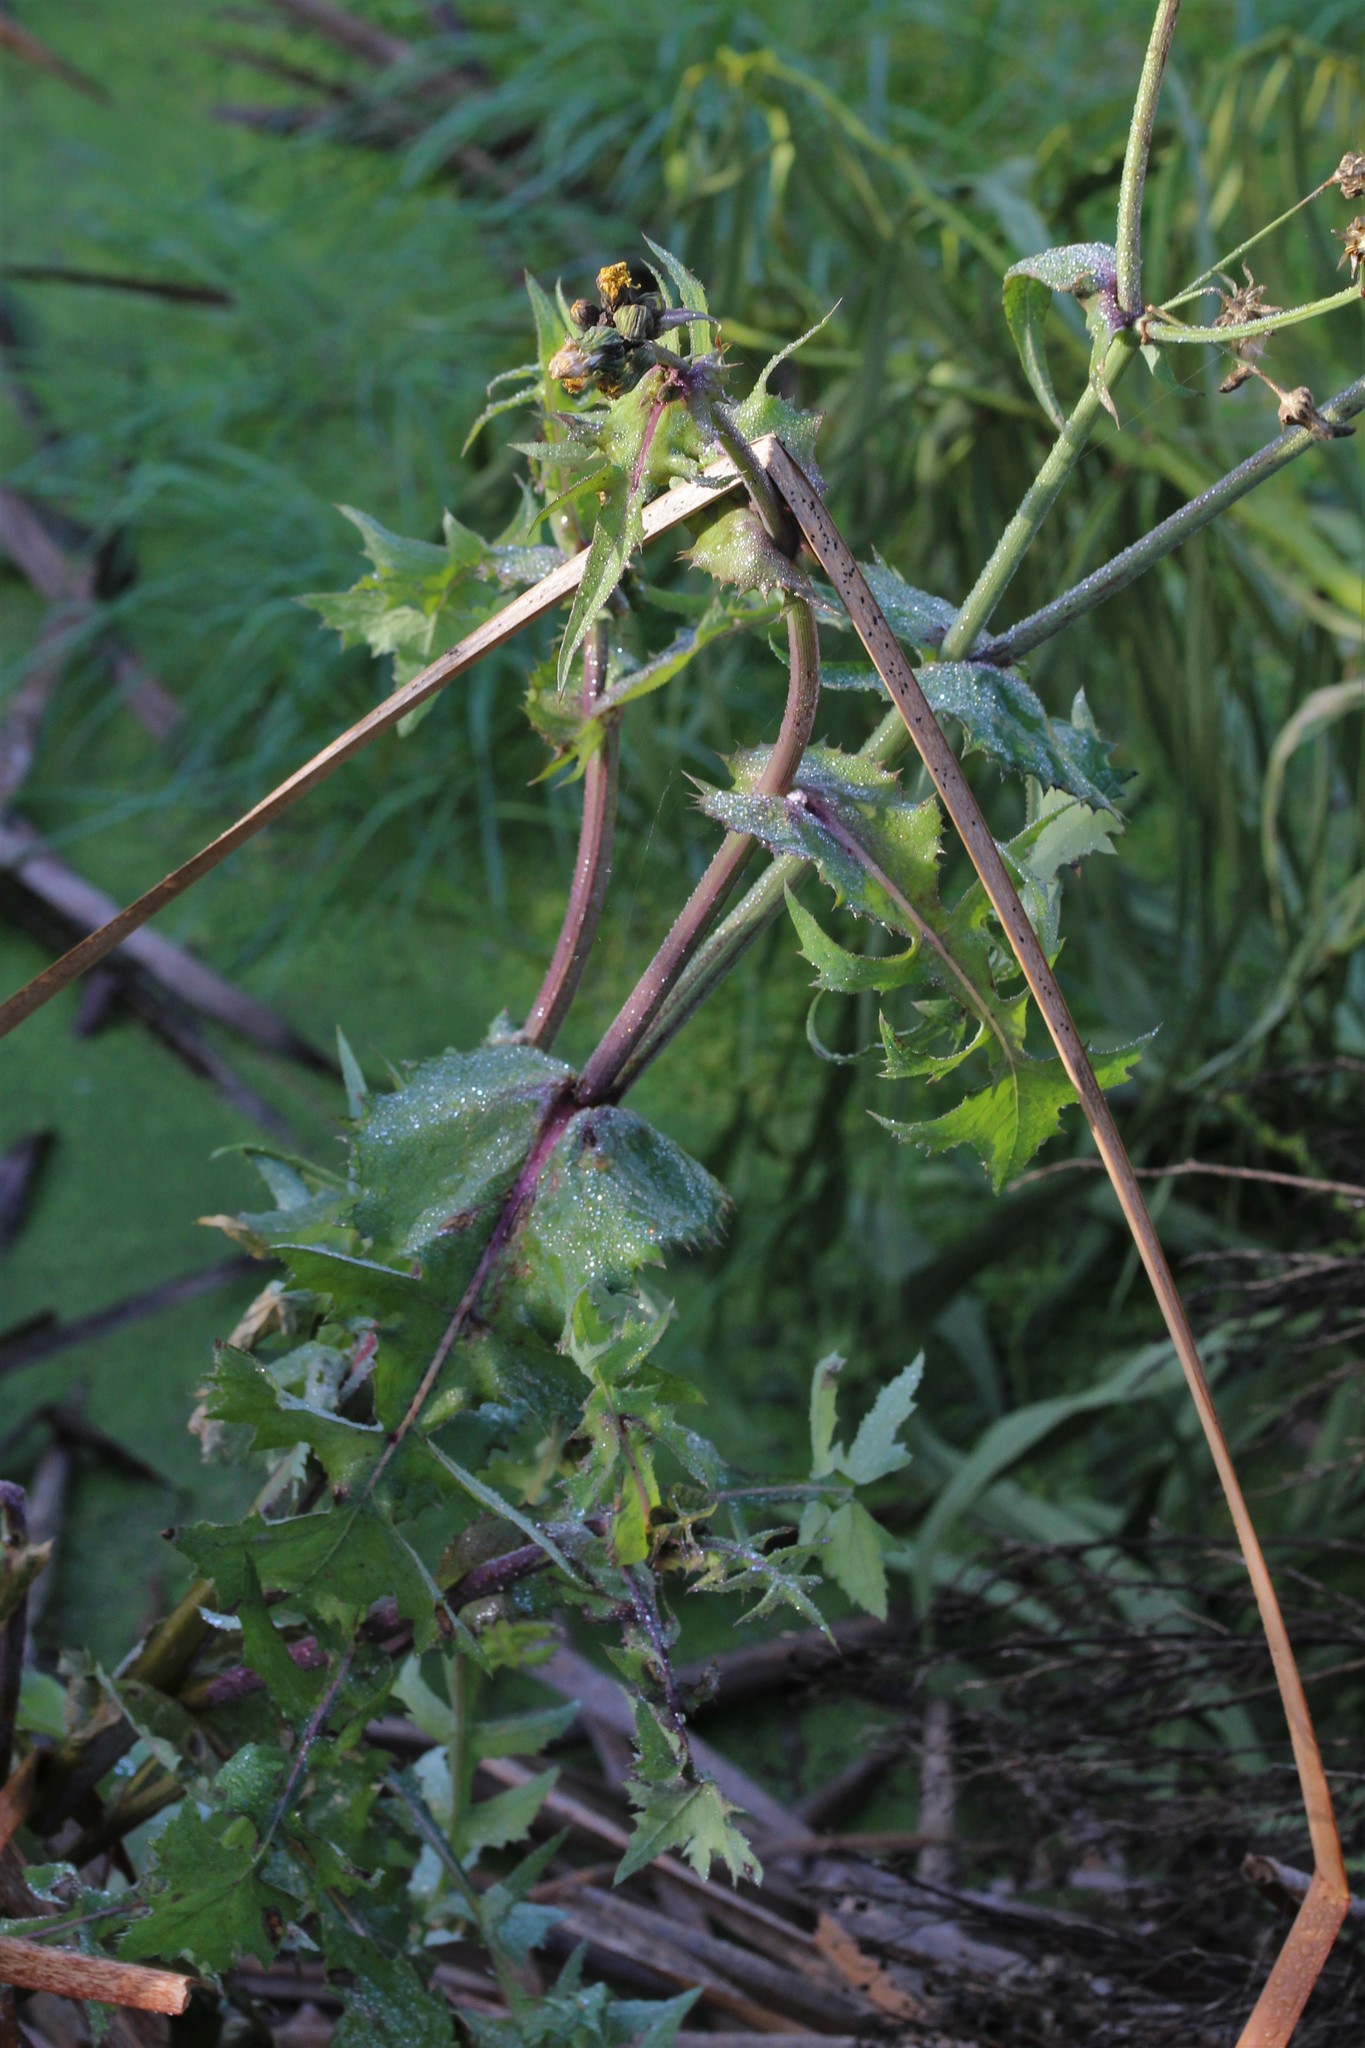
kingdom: Plantae
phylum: Tracheophyta
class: Magnoliopsida
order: Asterales
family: Asteraceae
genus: Sonchus
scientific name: Sonchus oleraceus
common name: Common sowthistle
